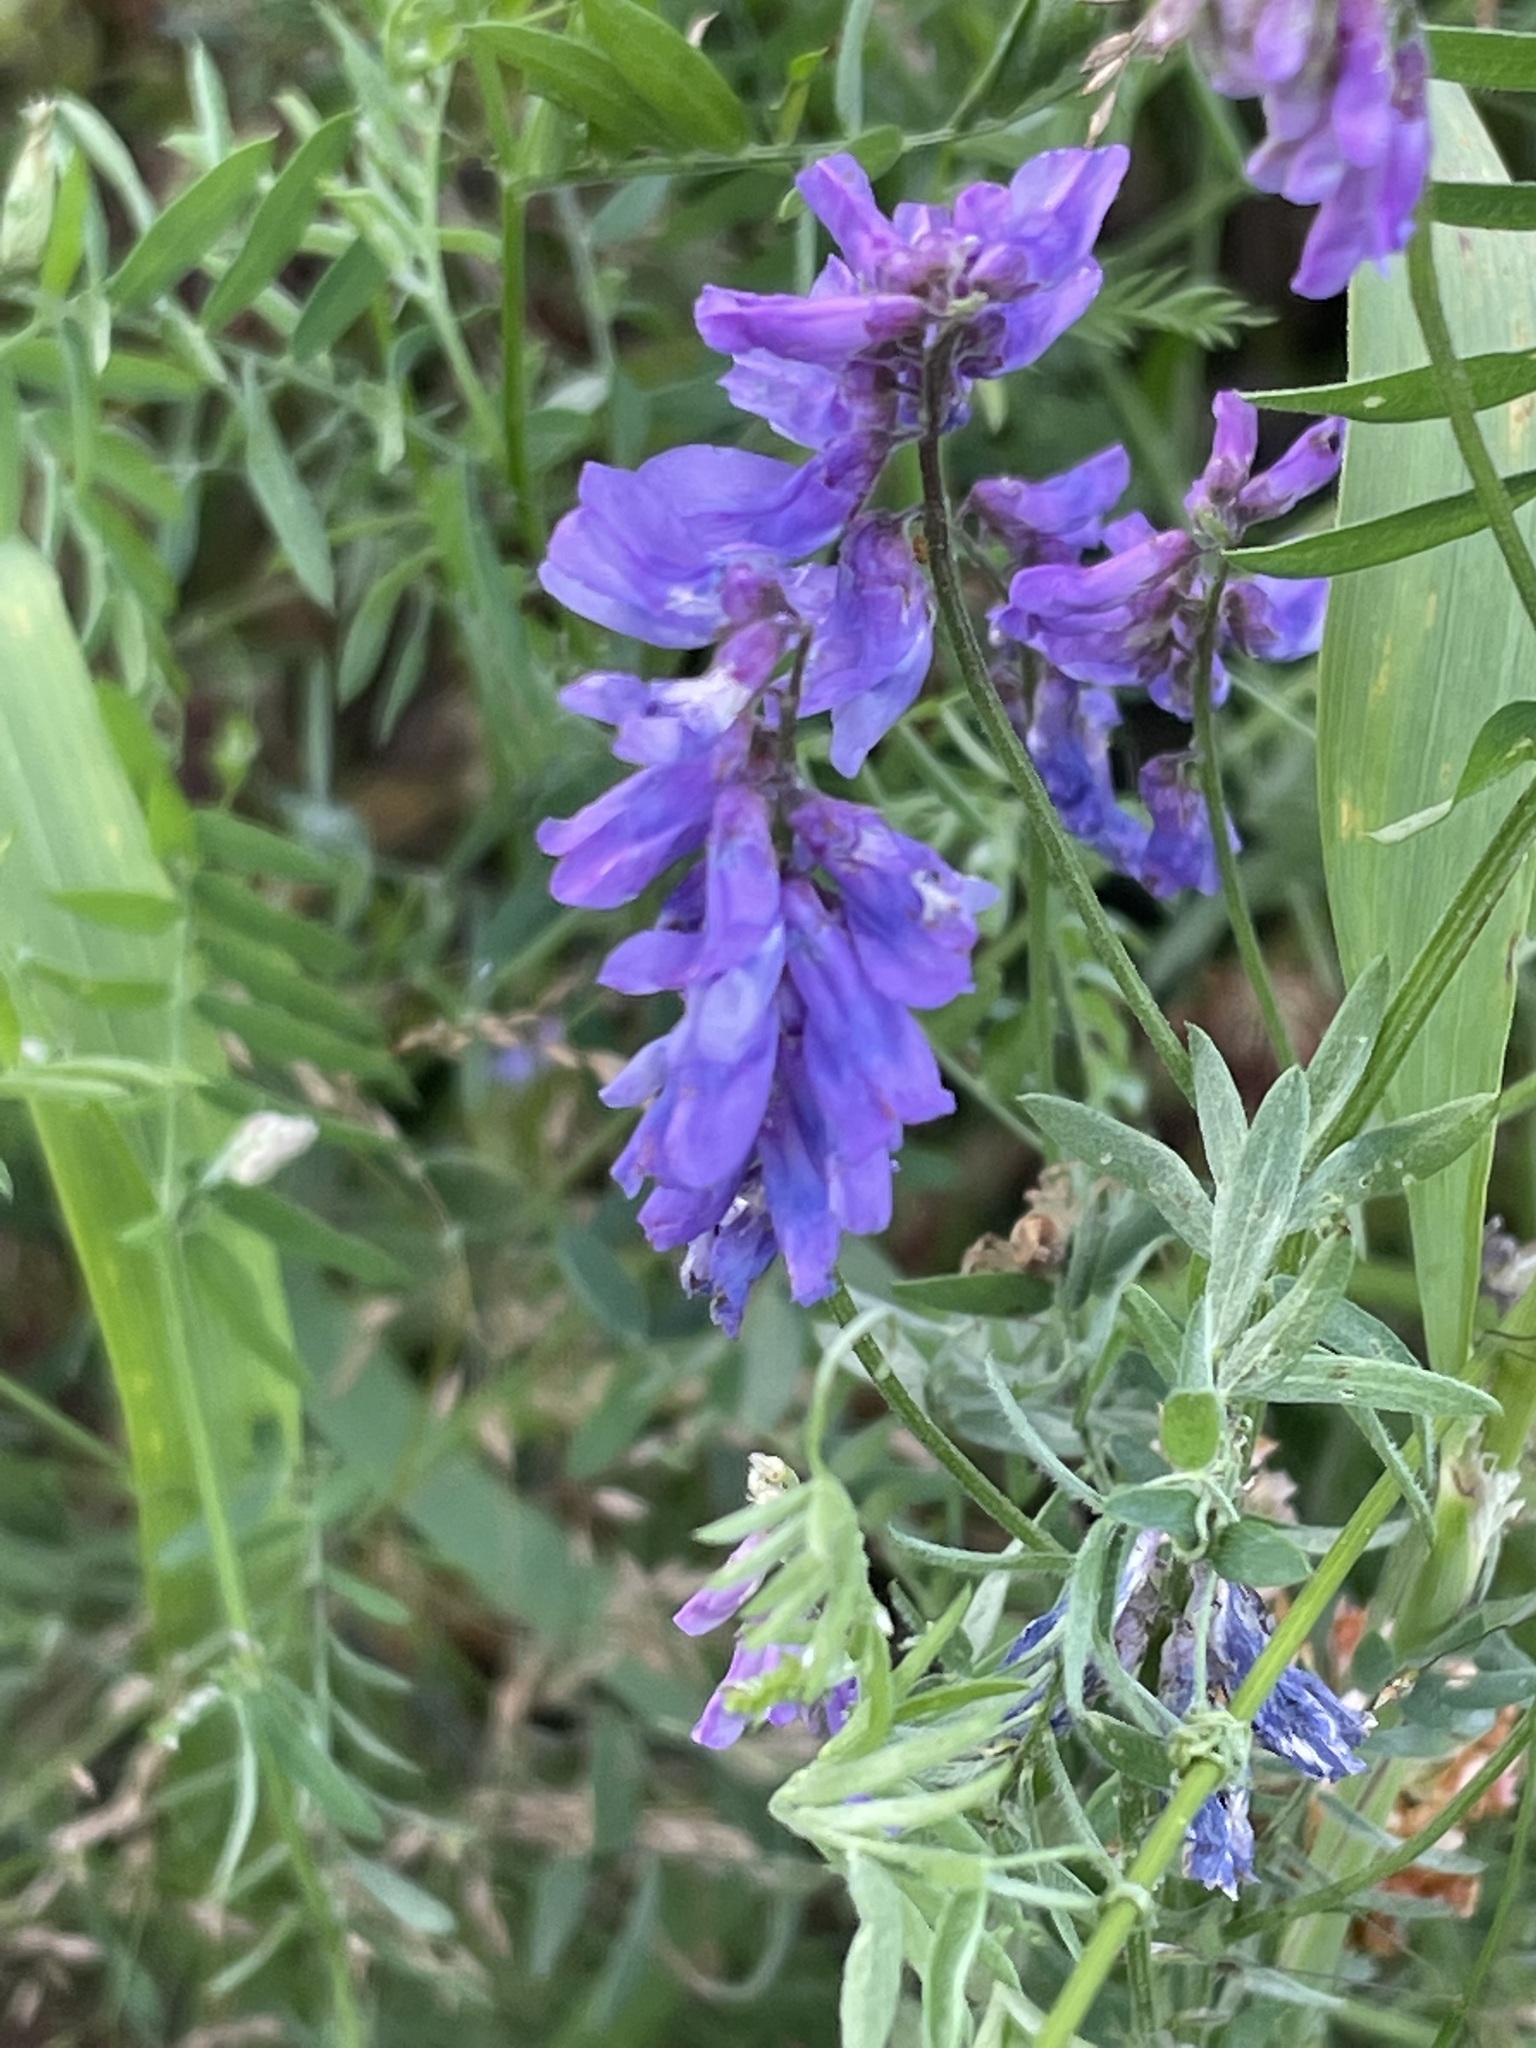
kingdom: Plantae
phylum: Tracheophyta
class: Magnoliopsida
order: Fabales
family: Fabaceae
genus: Vicia
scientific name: Vicia cracca
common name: Bird vetch
